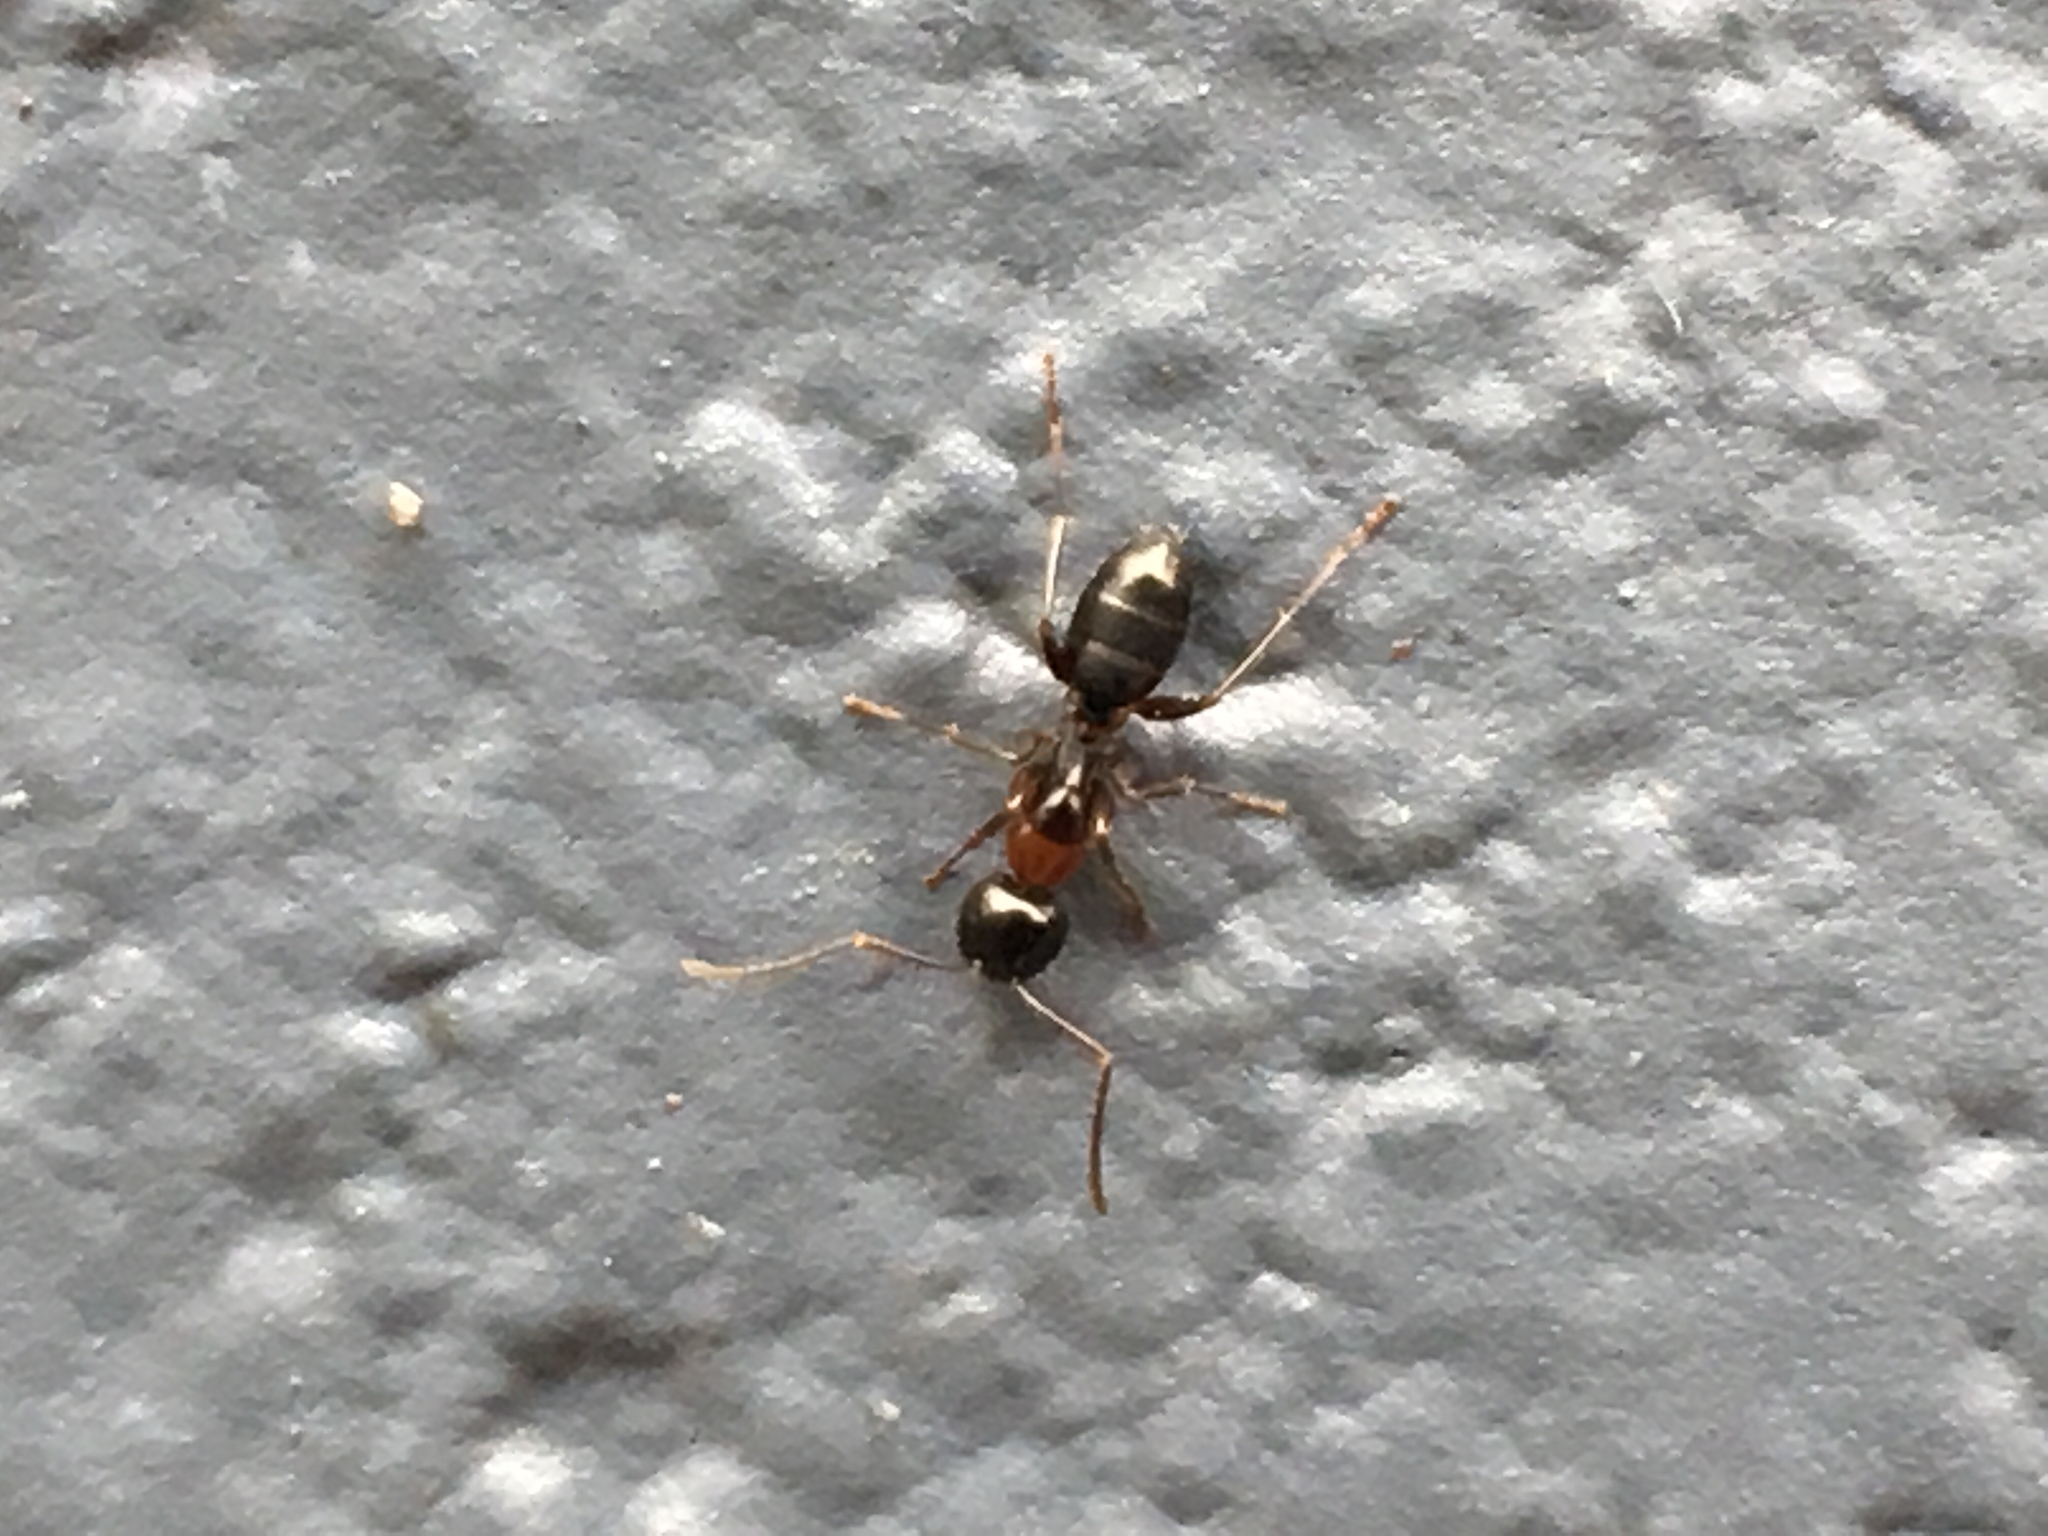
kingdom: Animalia
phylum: Arthropoda
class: Insecta
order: Hymenoptera
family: Formicidae
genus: Camponotus
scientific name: Camponotus nearcticus
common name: Smaller carpenter ant
